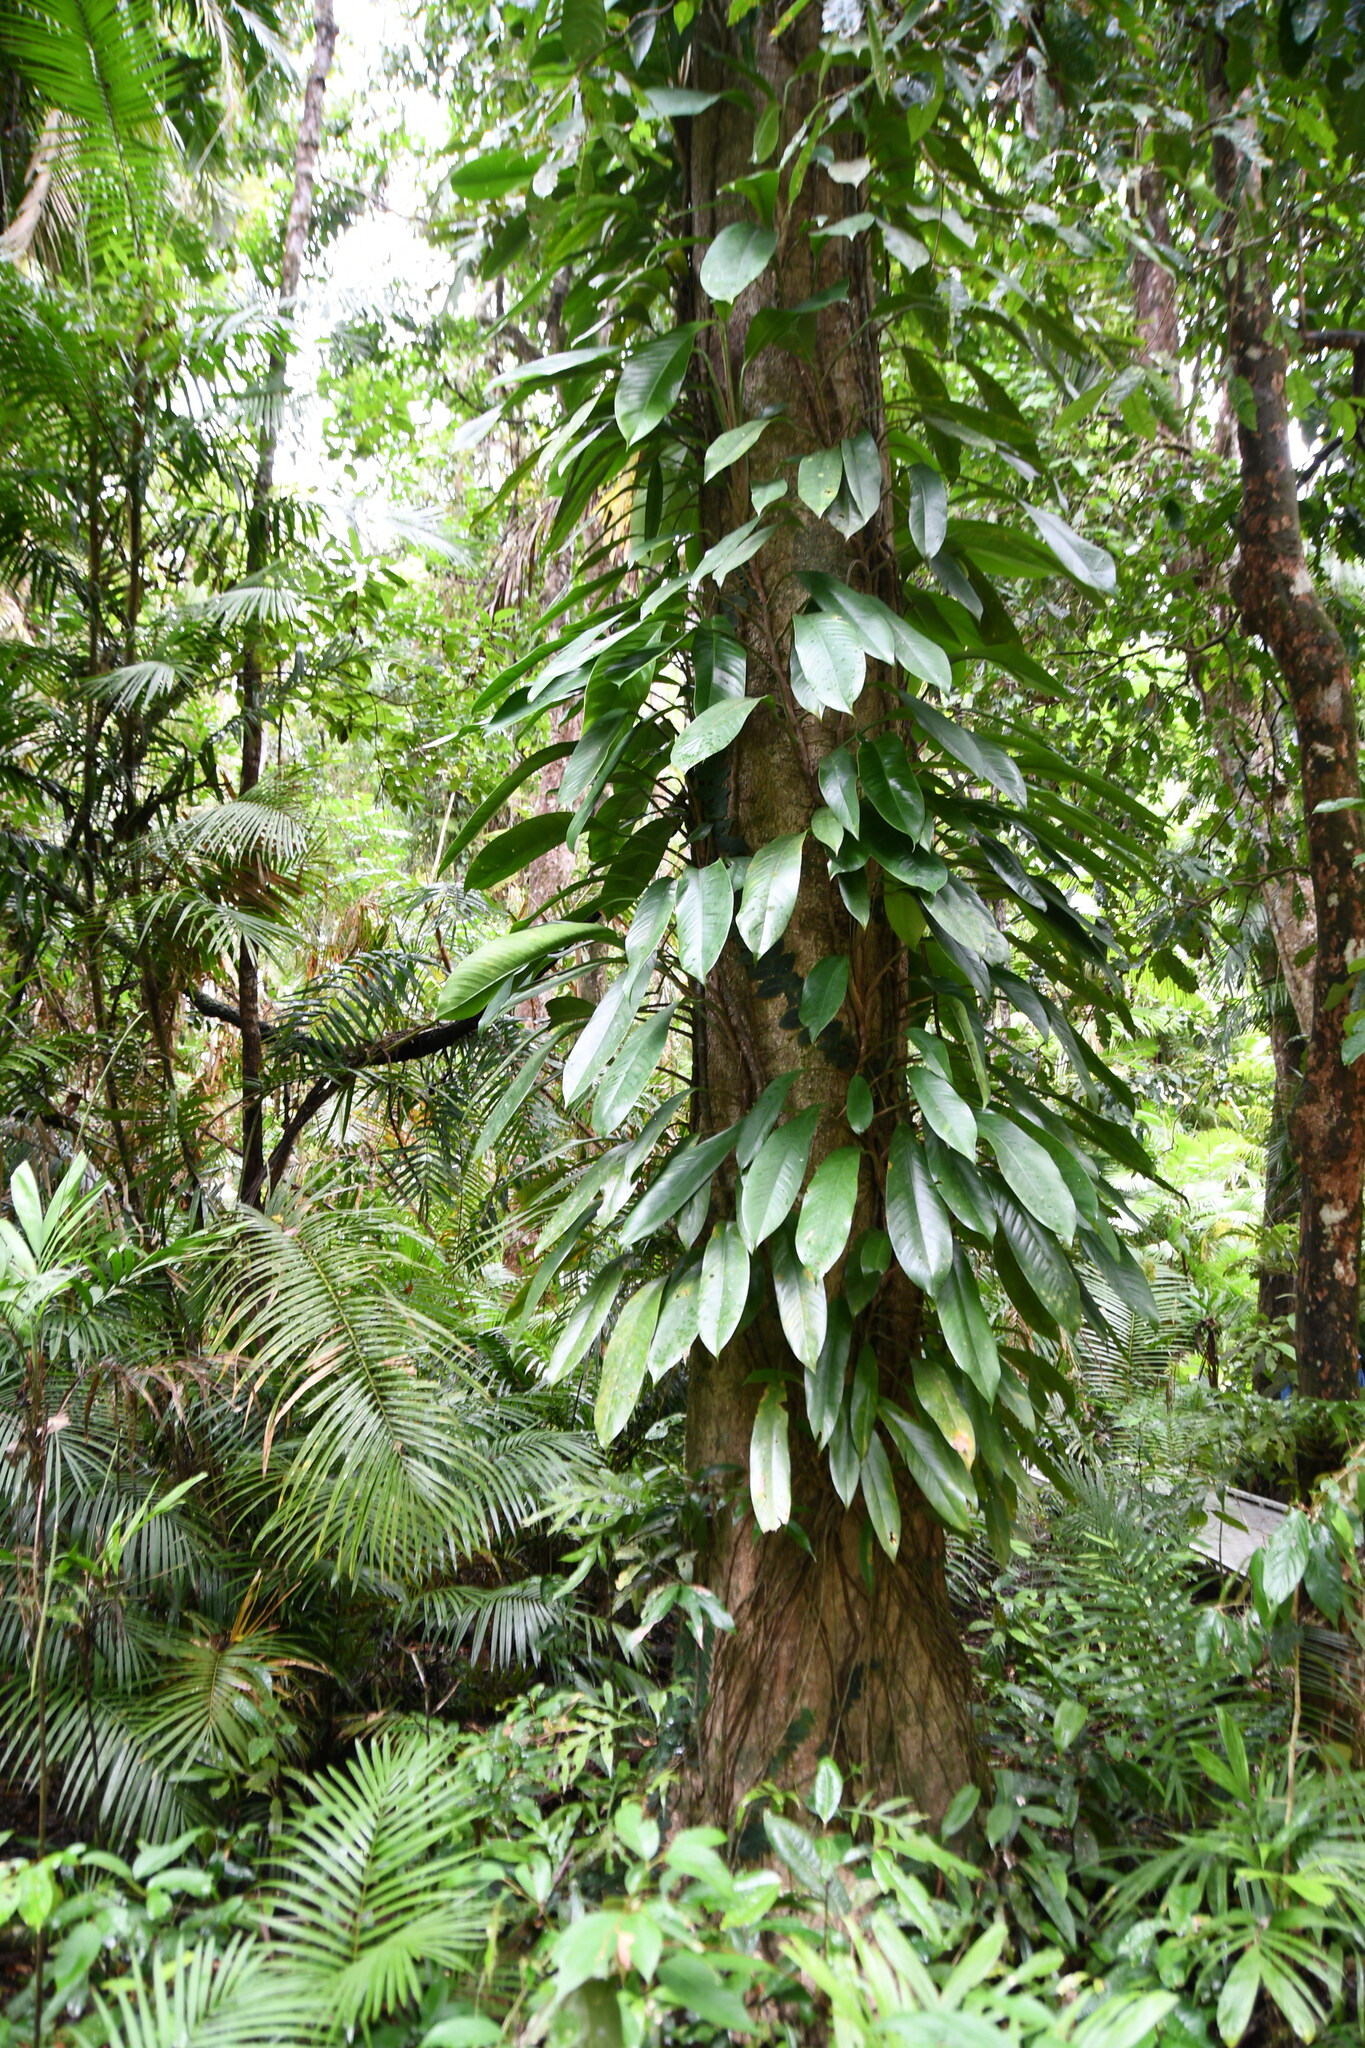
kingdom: Plantae
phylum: Tracheophyta
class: Liliopsida
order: Alismatales
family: Araceae
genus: Rhaphidophora
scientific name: Rhaphidophora australasica
